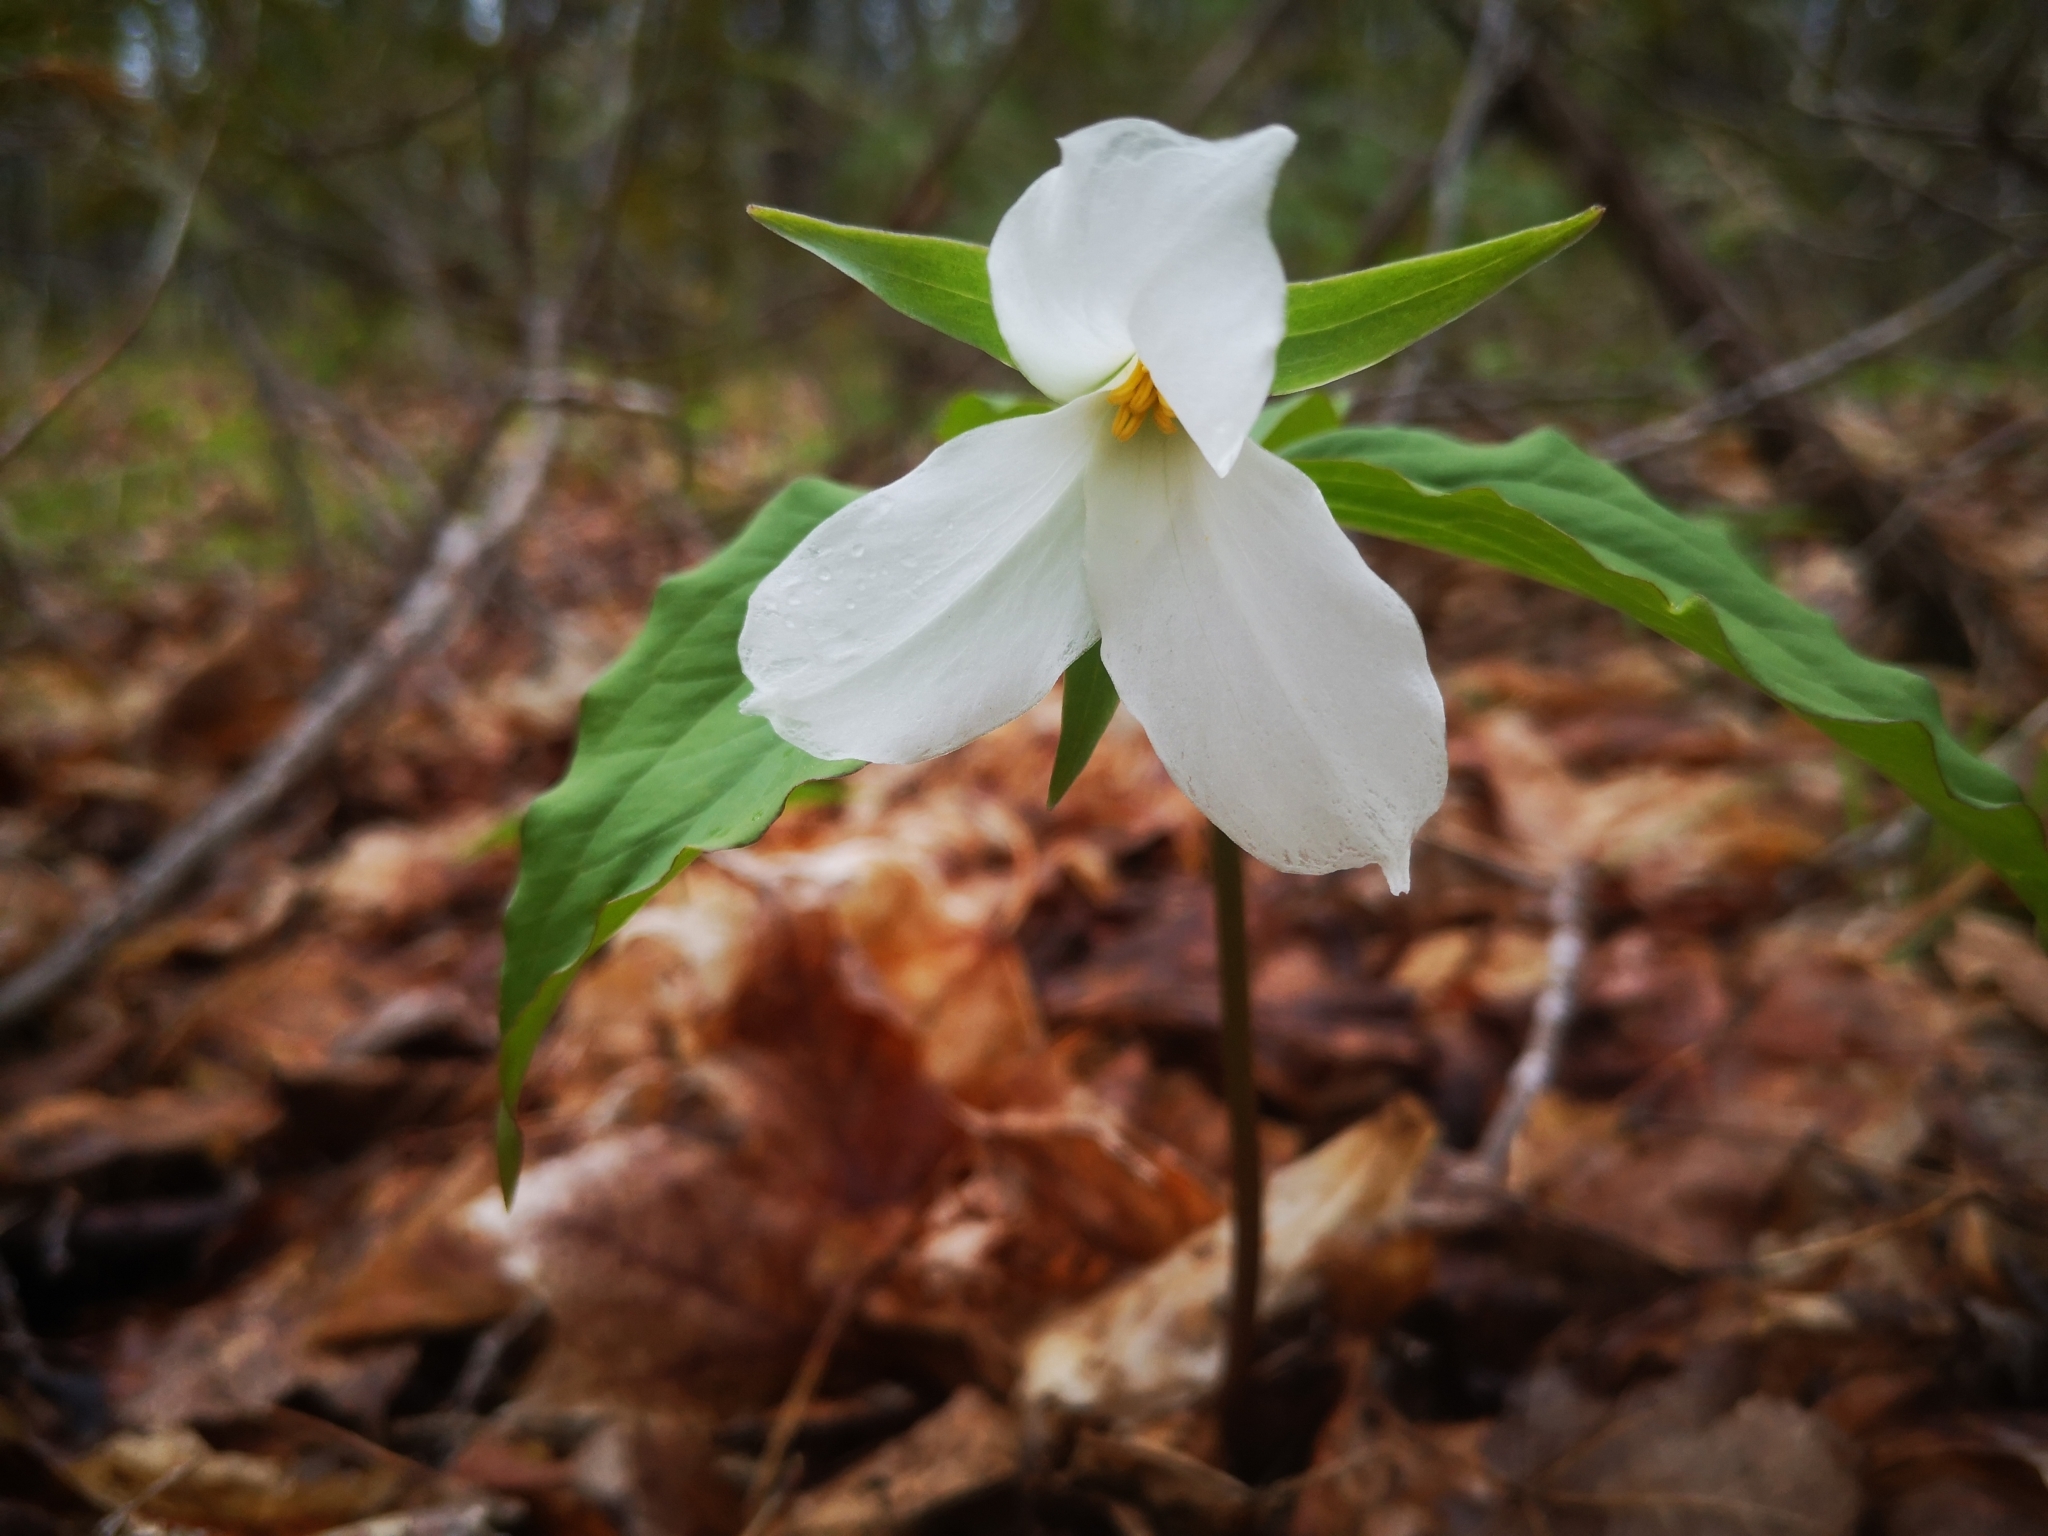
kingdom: Plantae
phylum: Tracheophyta
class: Liliopsida
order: Liliales
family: Melanthiaceae
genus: Trillium
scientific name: Trillium grandiflorum
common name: Great white trillium
